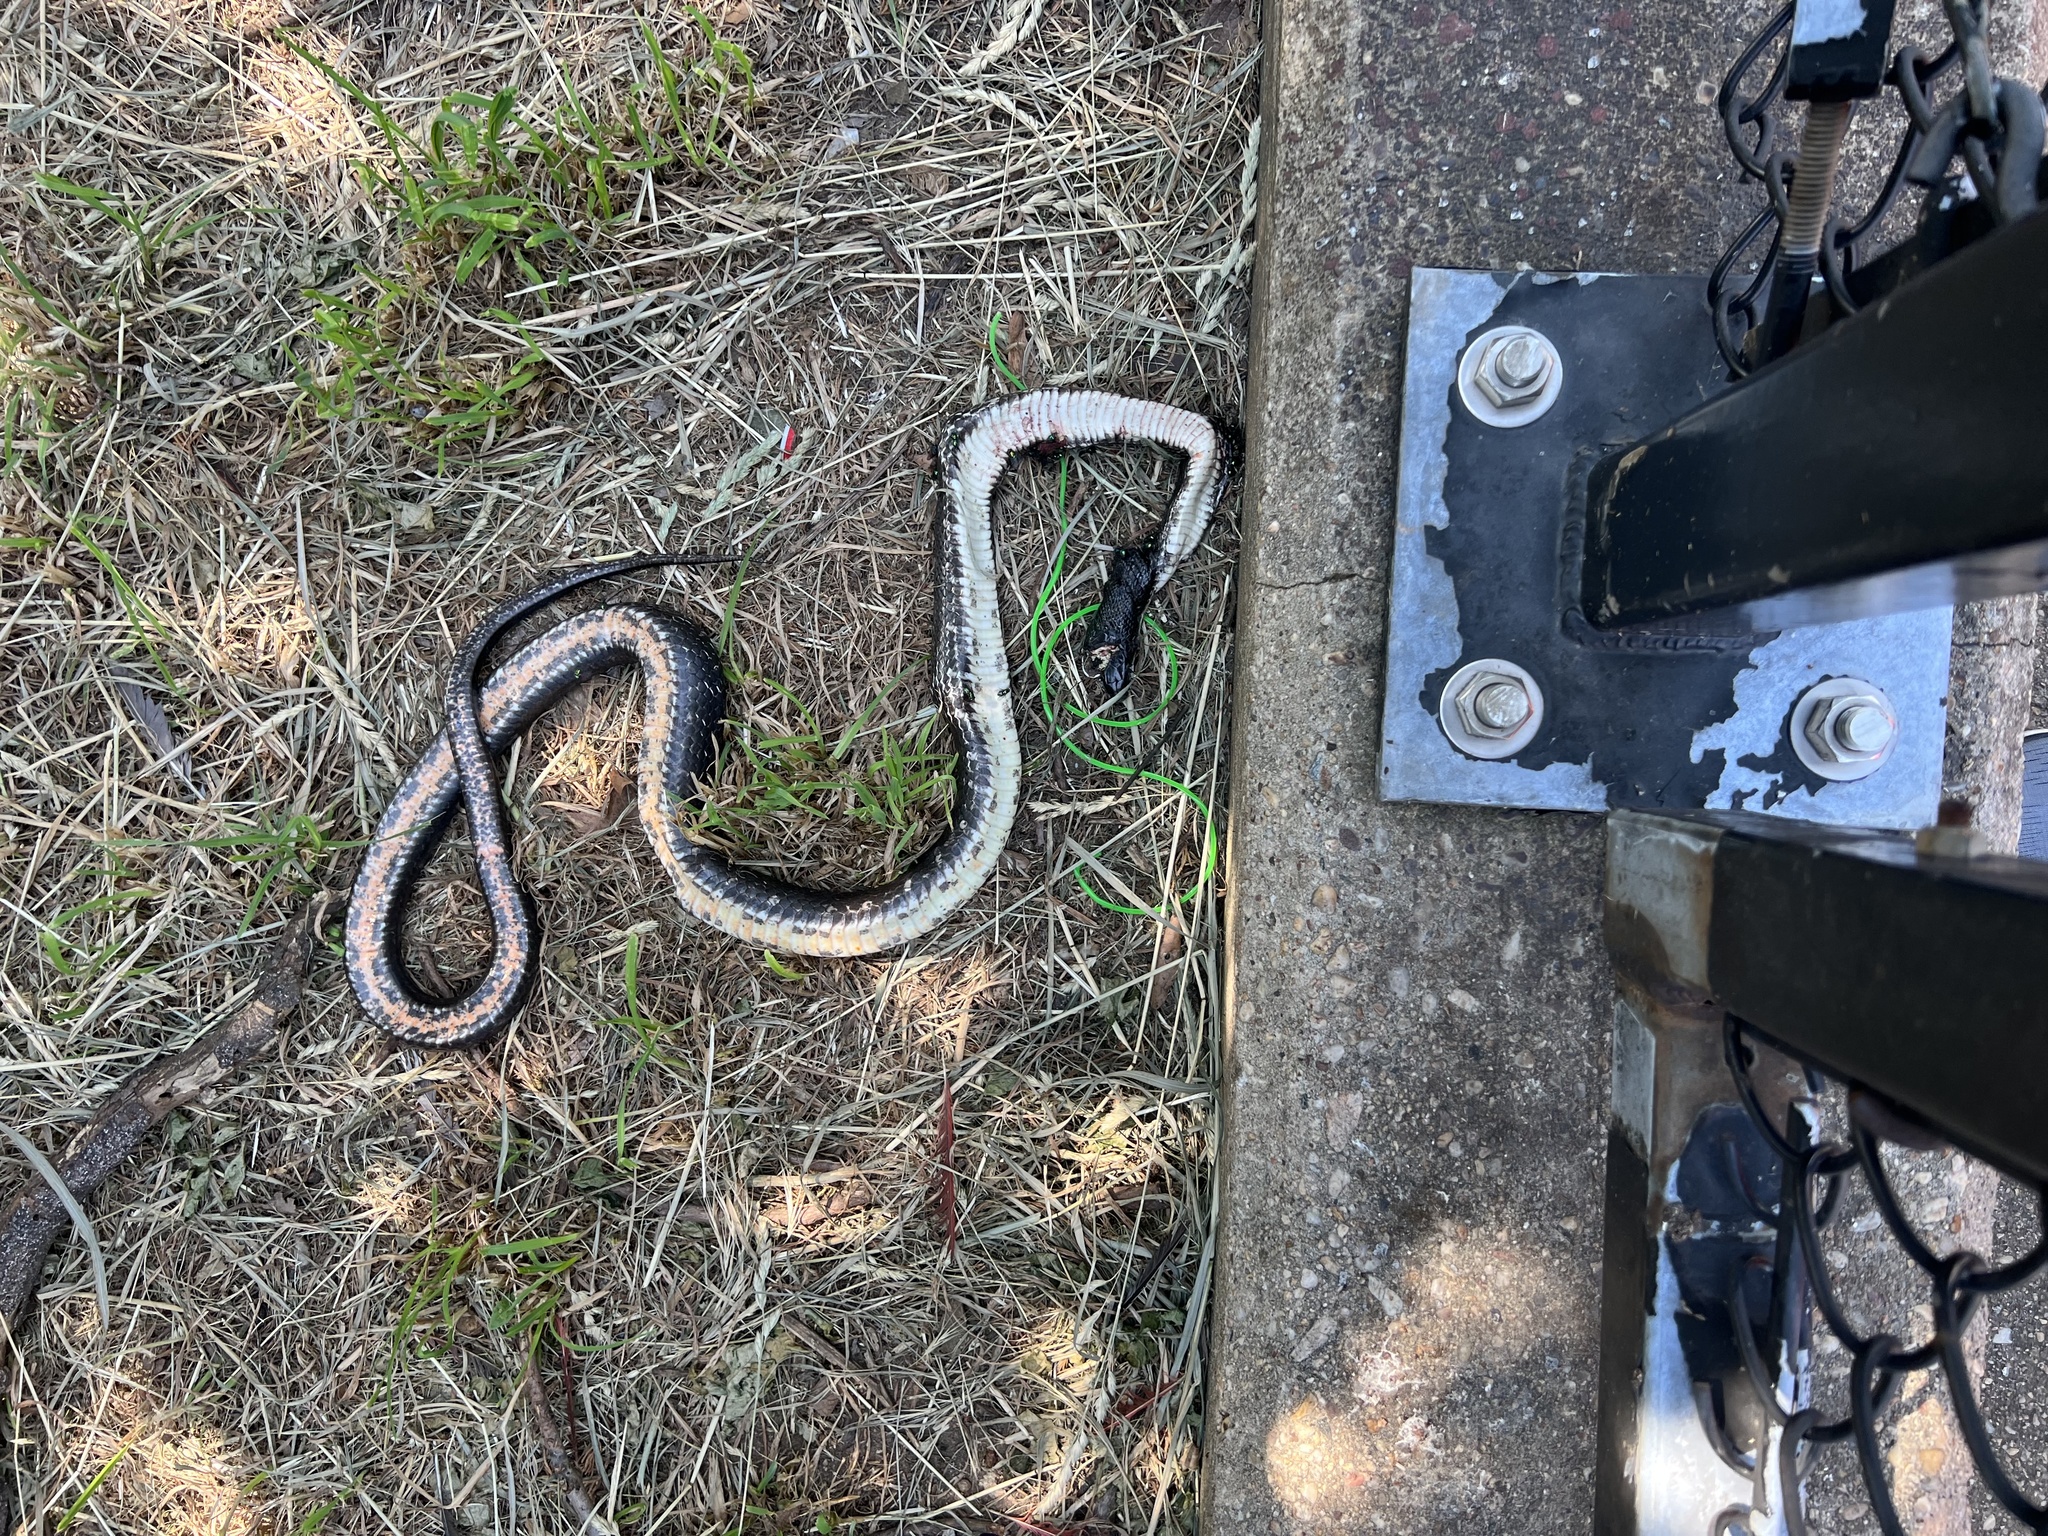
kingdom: Animalia
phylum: Chordata
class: Squamata
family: Colubridae
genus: Pantherophis
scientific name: Pantherophis alleghaniensis
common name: Eastern rat snake
